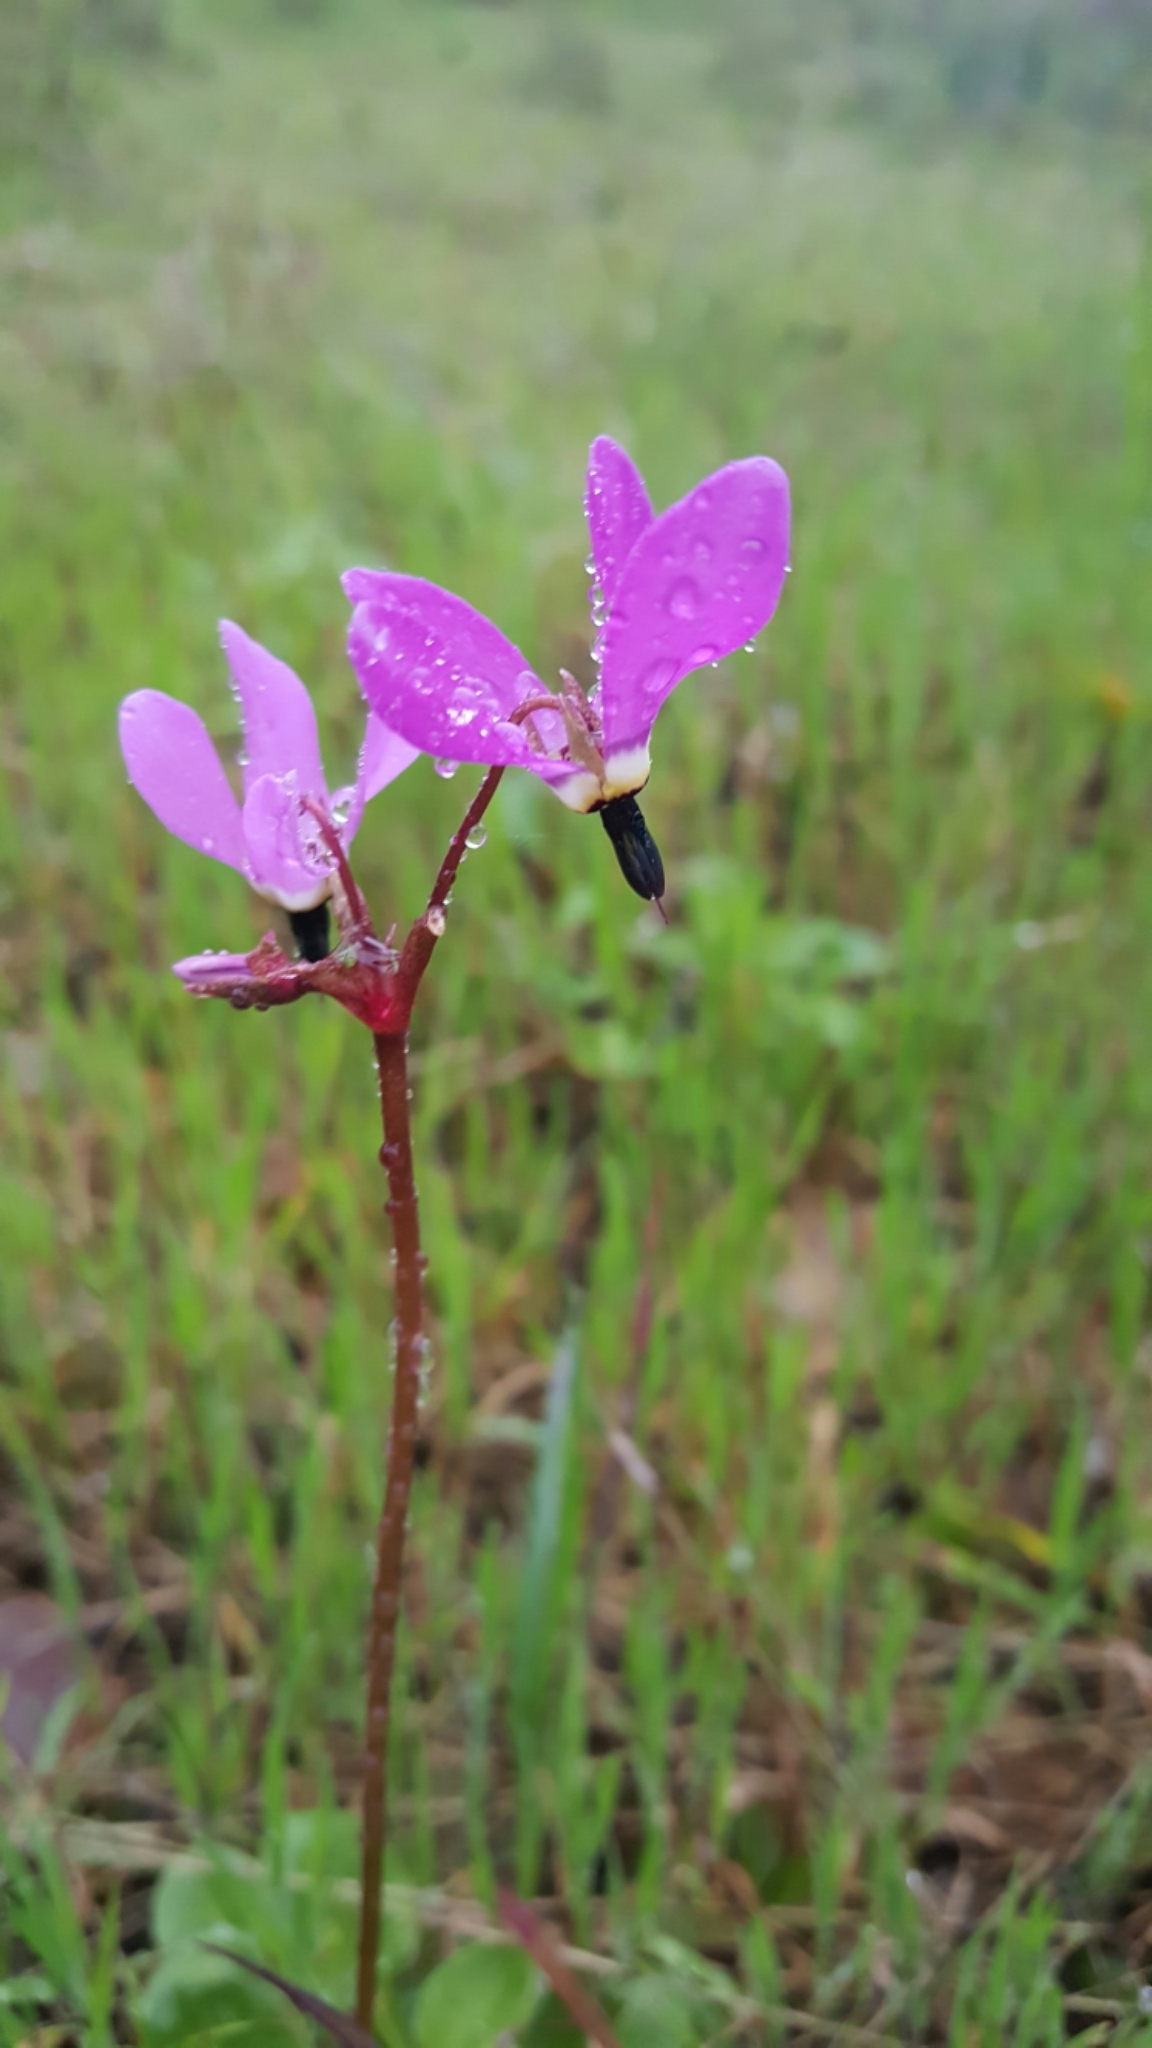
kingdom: Plantae
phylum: Tracheophyta
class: Magnoliopsida
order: Ericales
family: Primulaceae
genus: Dodecatheon
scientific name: Dodecatheon hendersonii
